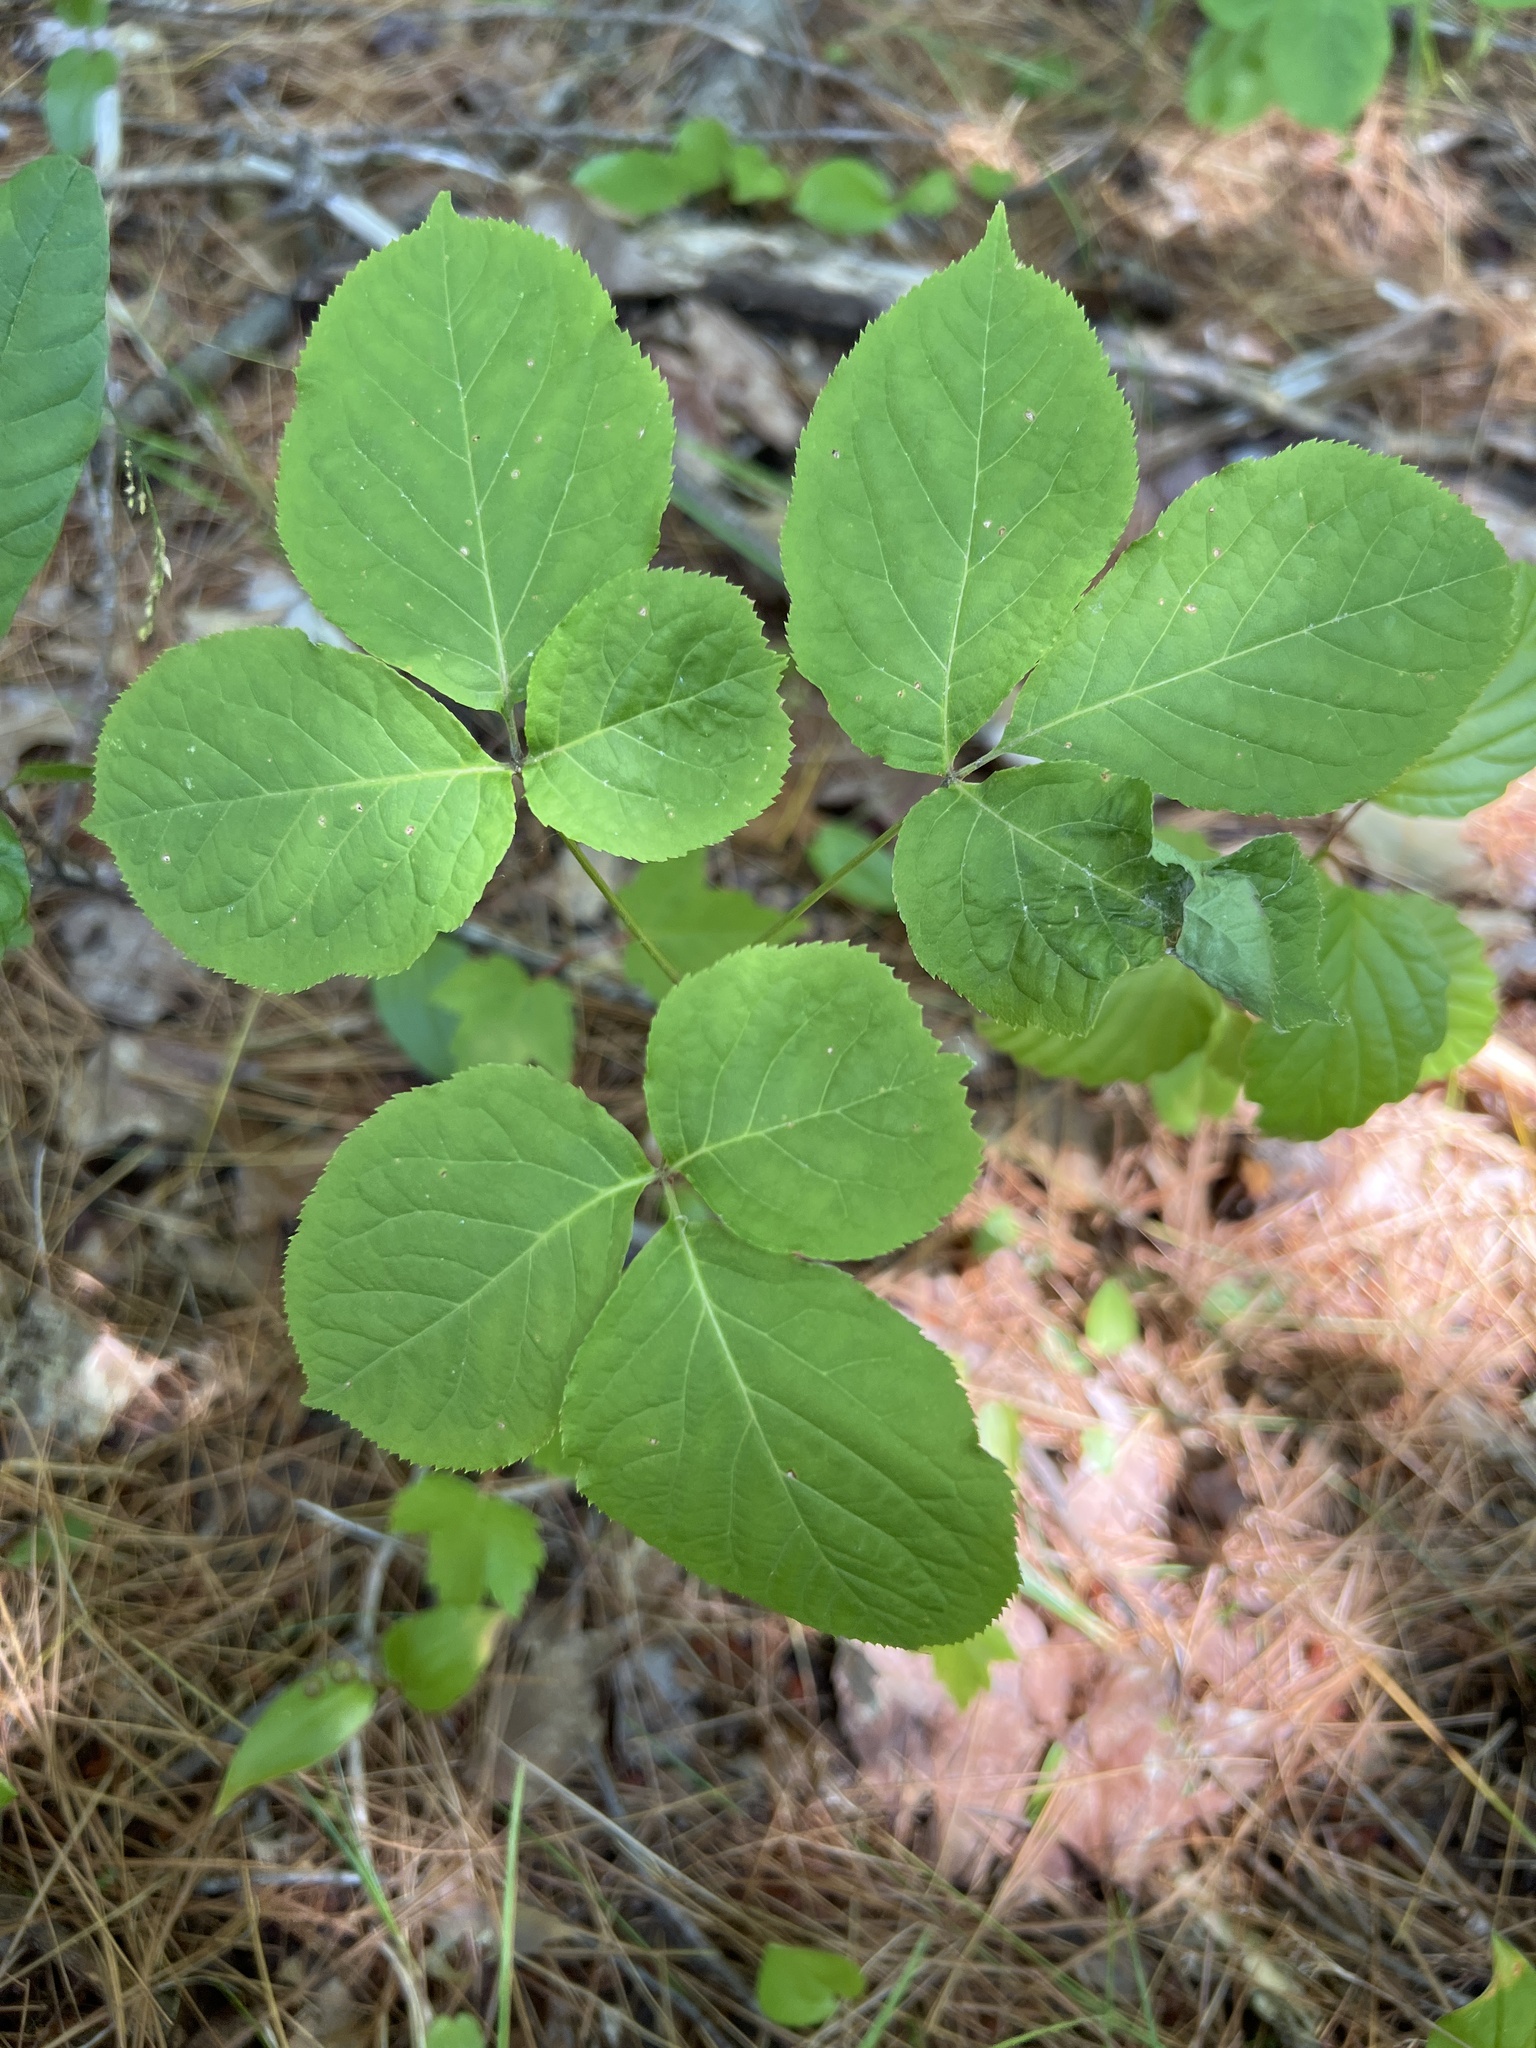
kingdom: Plantae
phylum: Tracheophyta
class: Magnoliopsida
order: Apiales
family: Araliaceae
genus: Aralia
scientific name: Aralia nudicaulis
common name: Wild sarsaparilla
